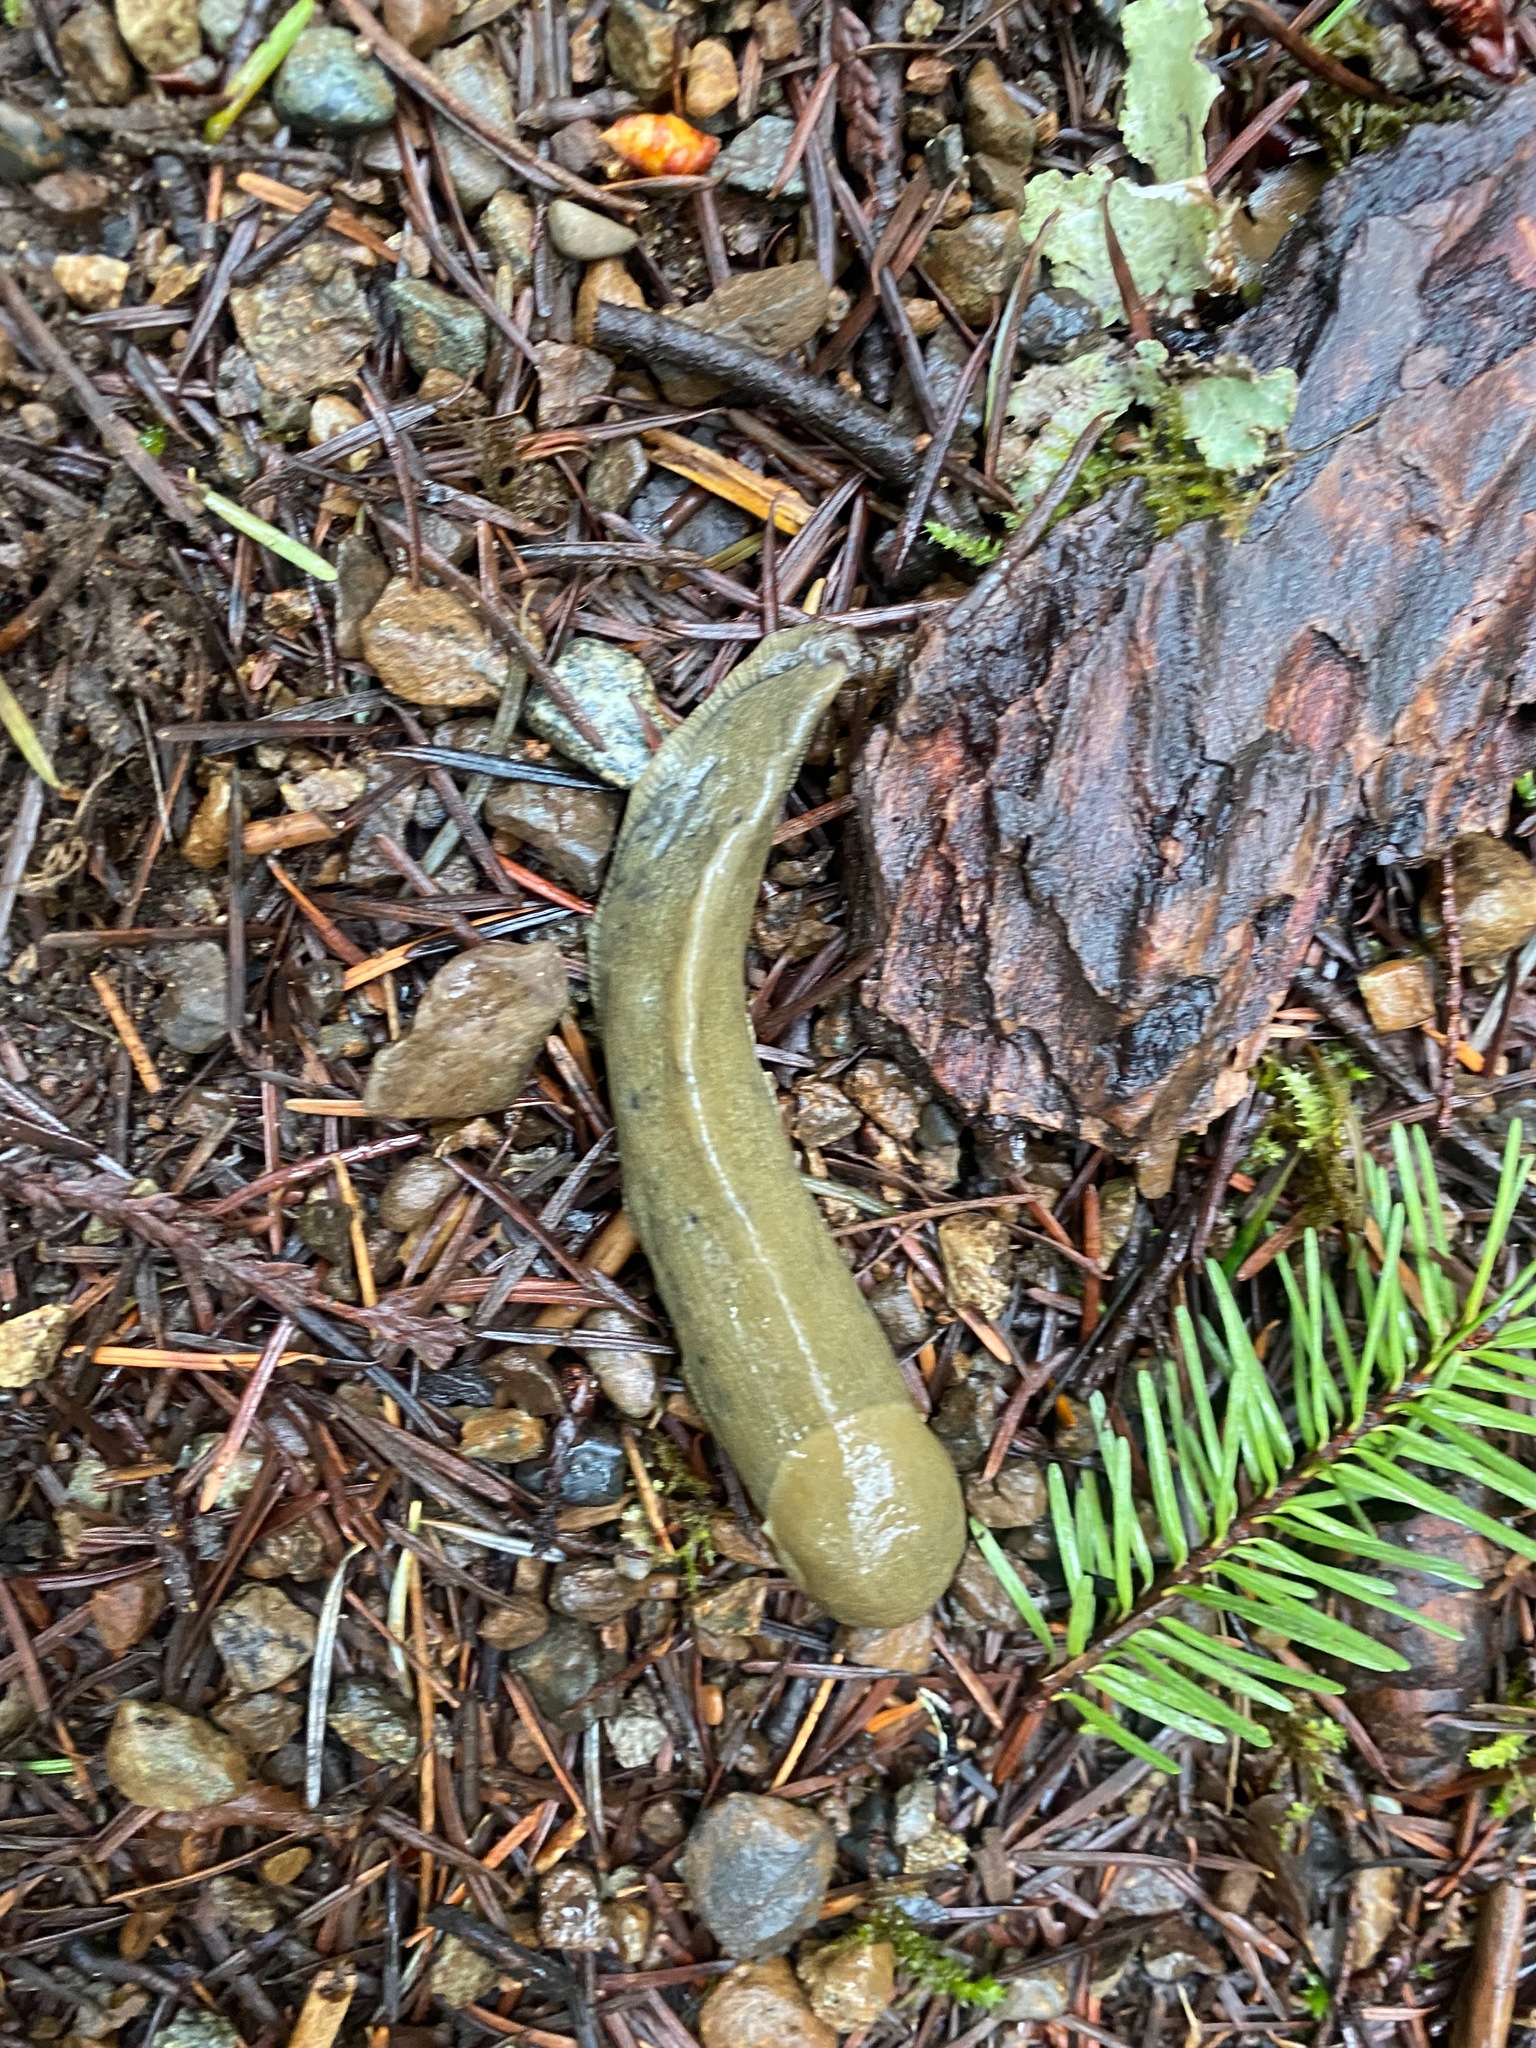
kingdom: Animalia
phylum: Mollusca
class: Gastropoda
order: Stylommatophora
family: Ariolimacidae
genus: Ariolimax
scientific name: Ariolimax columbianus
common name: Pacific banana slug
